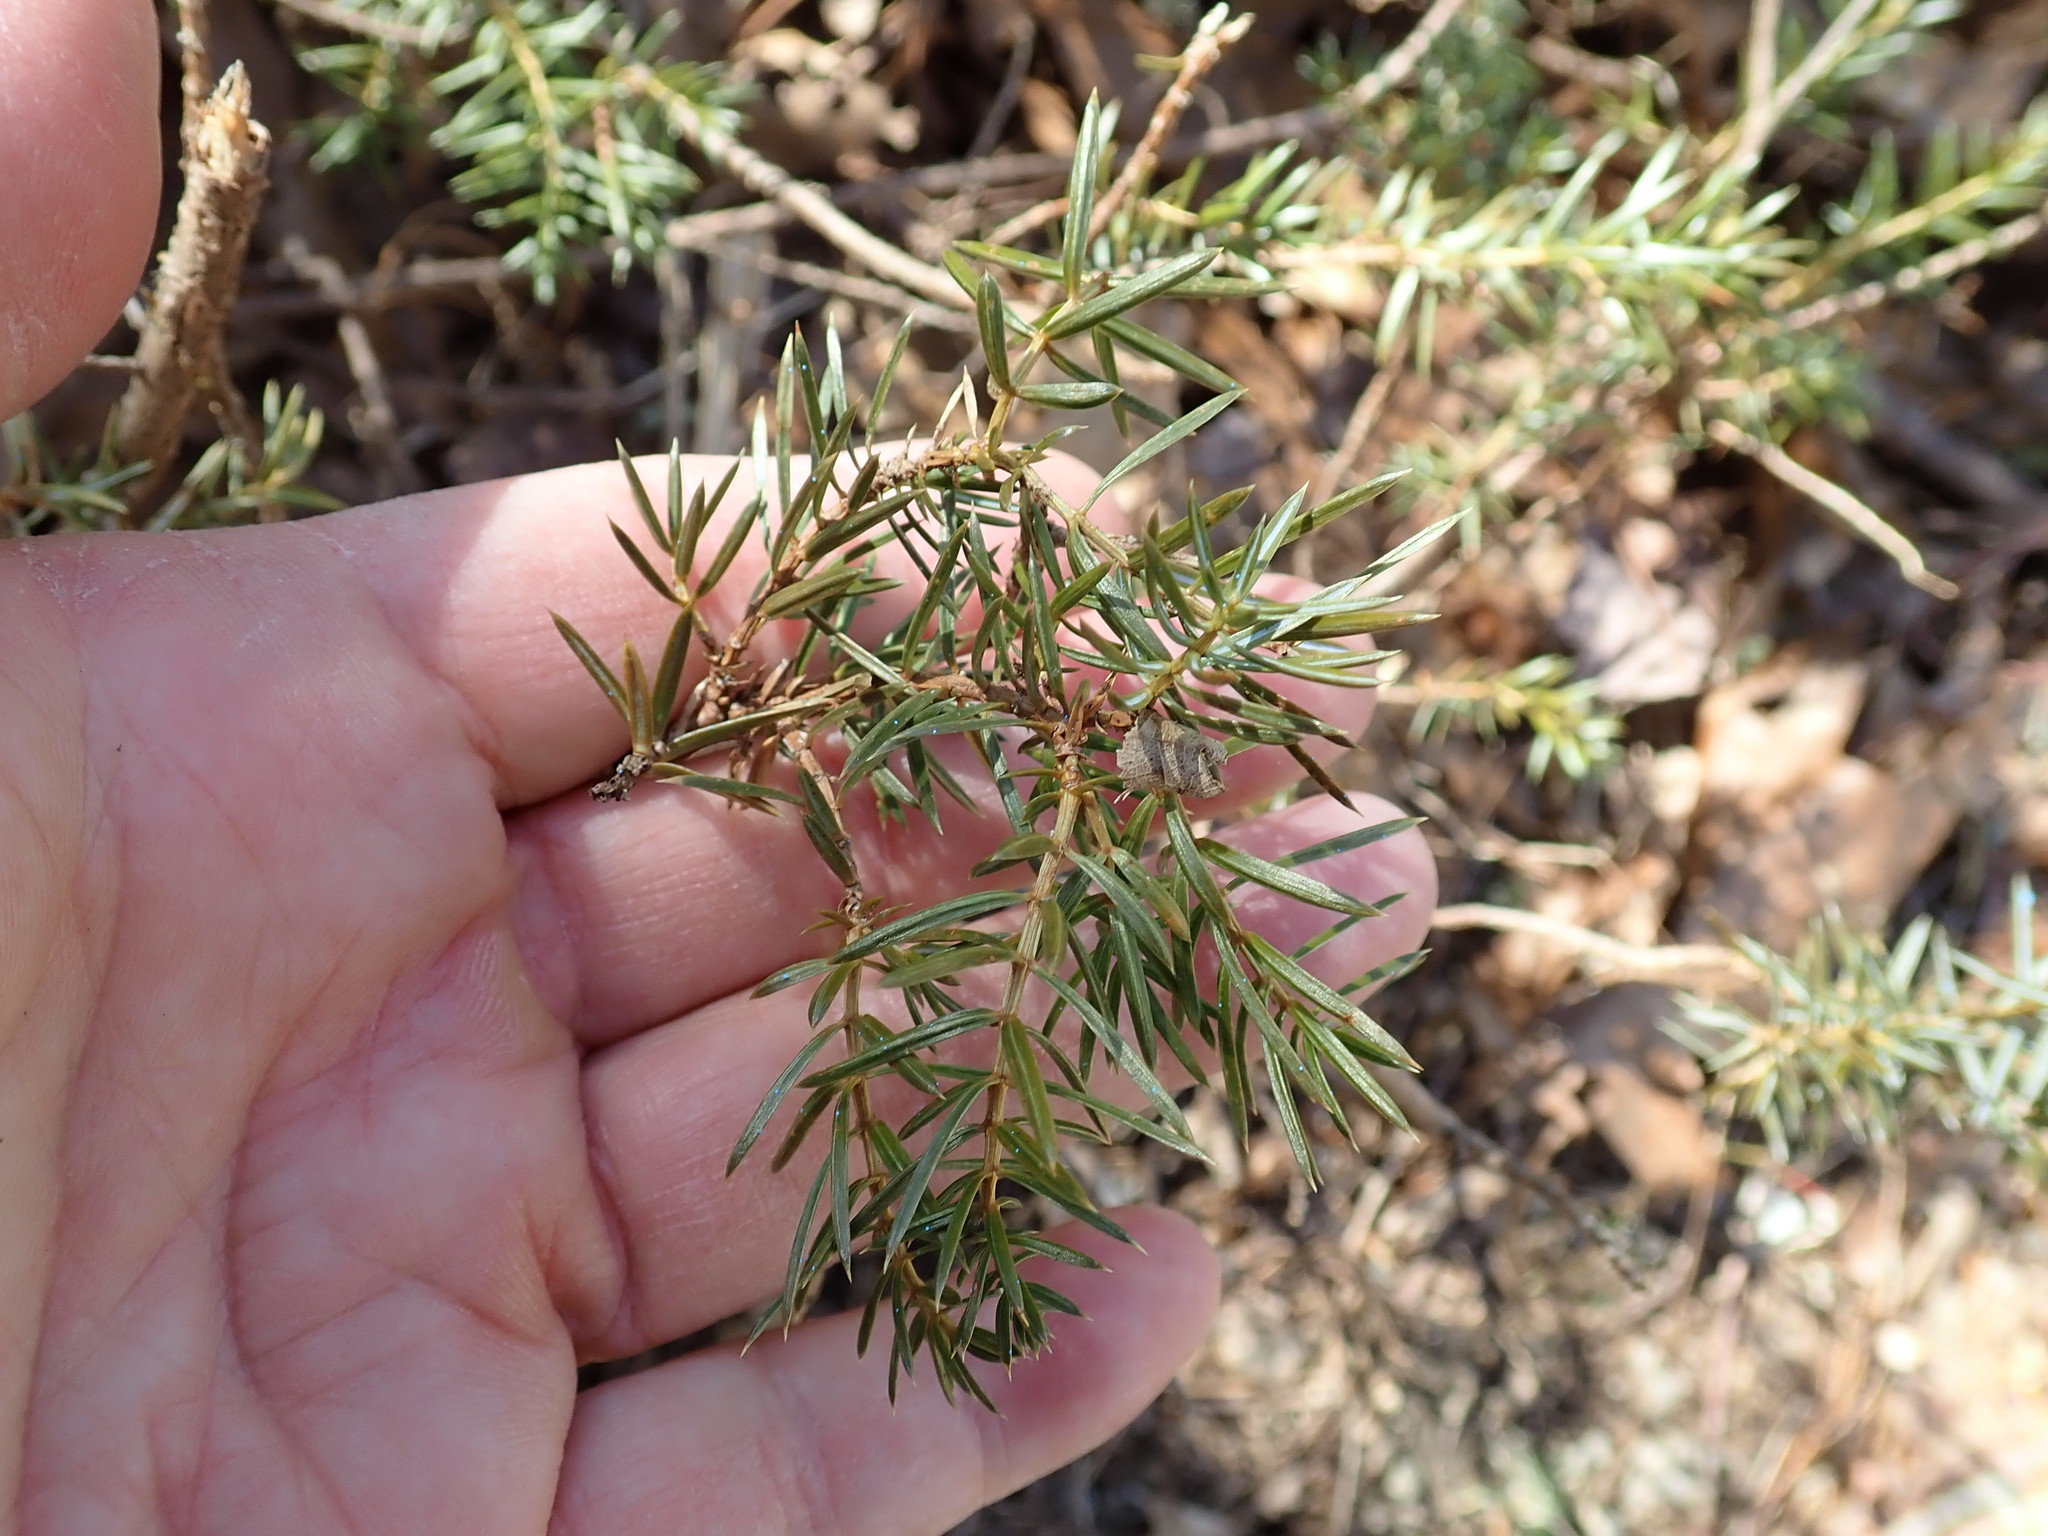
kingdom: Plantae
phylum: Tracheophyta
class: Pinopsida
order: Pinales
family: Cupressaceae
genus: Juniperus
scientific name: Juniperus communis
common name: Common juniper
